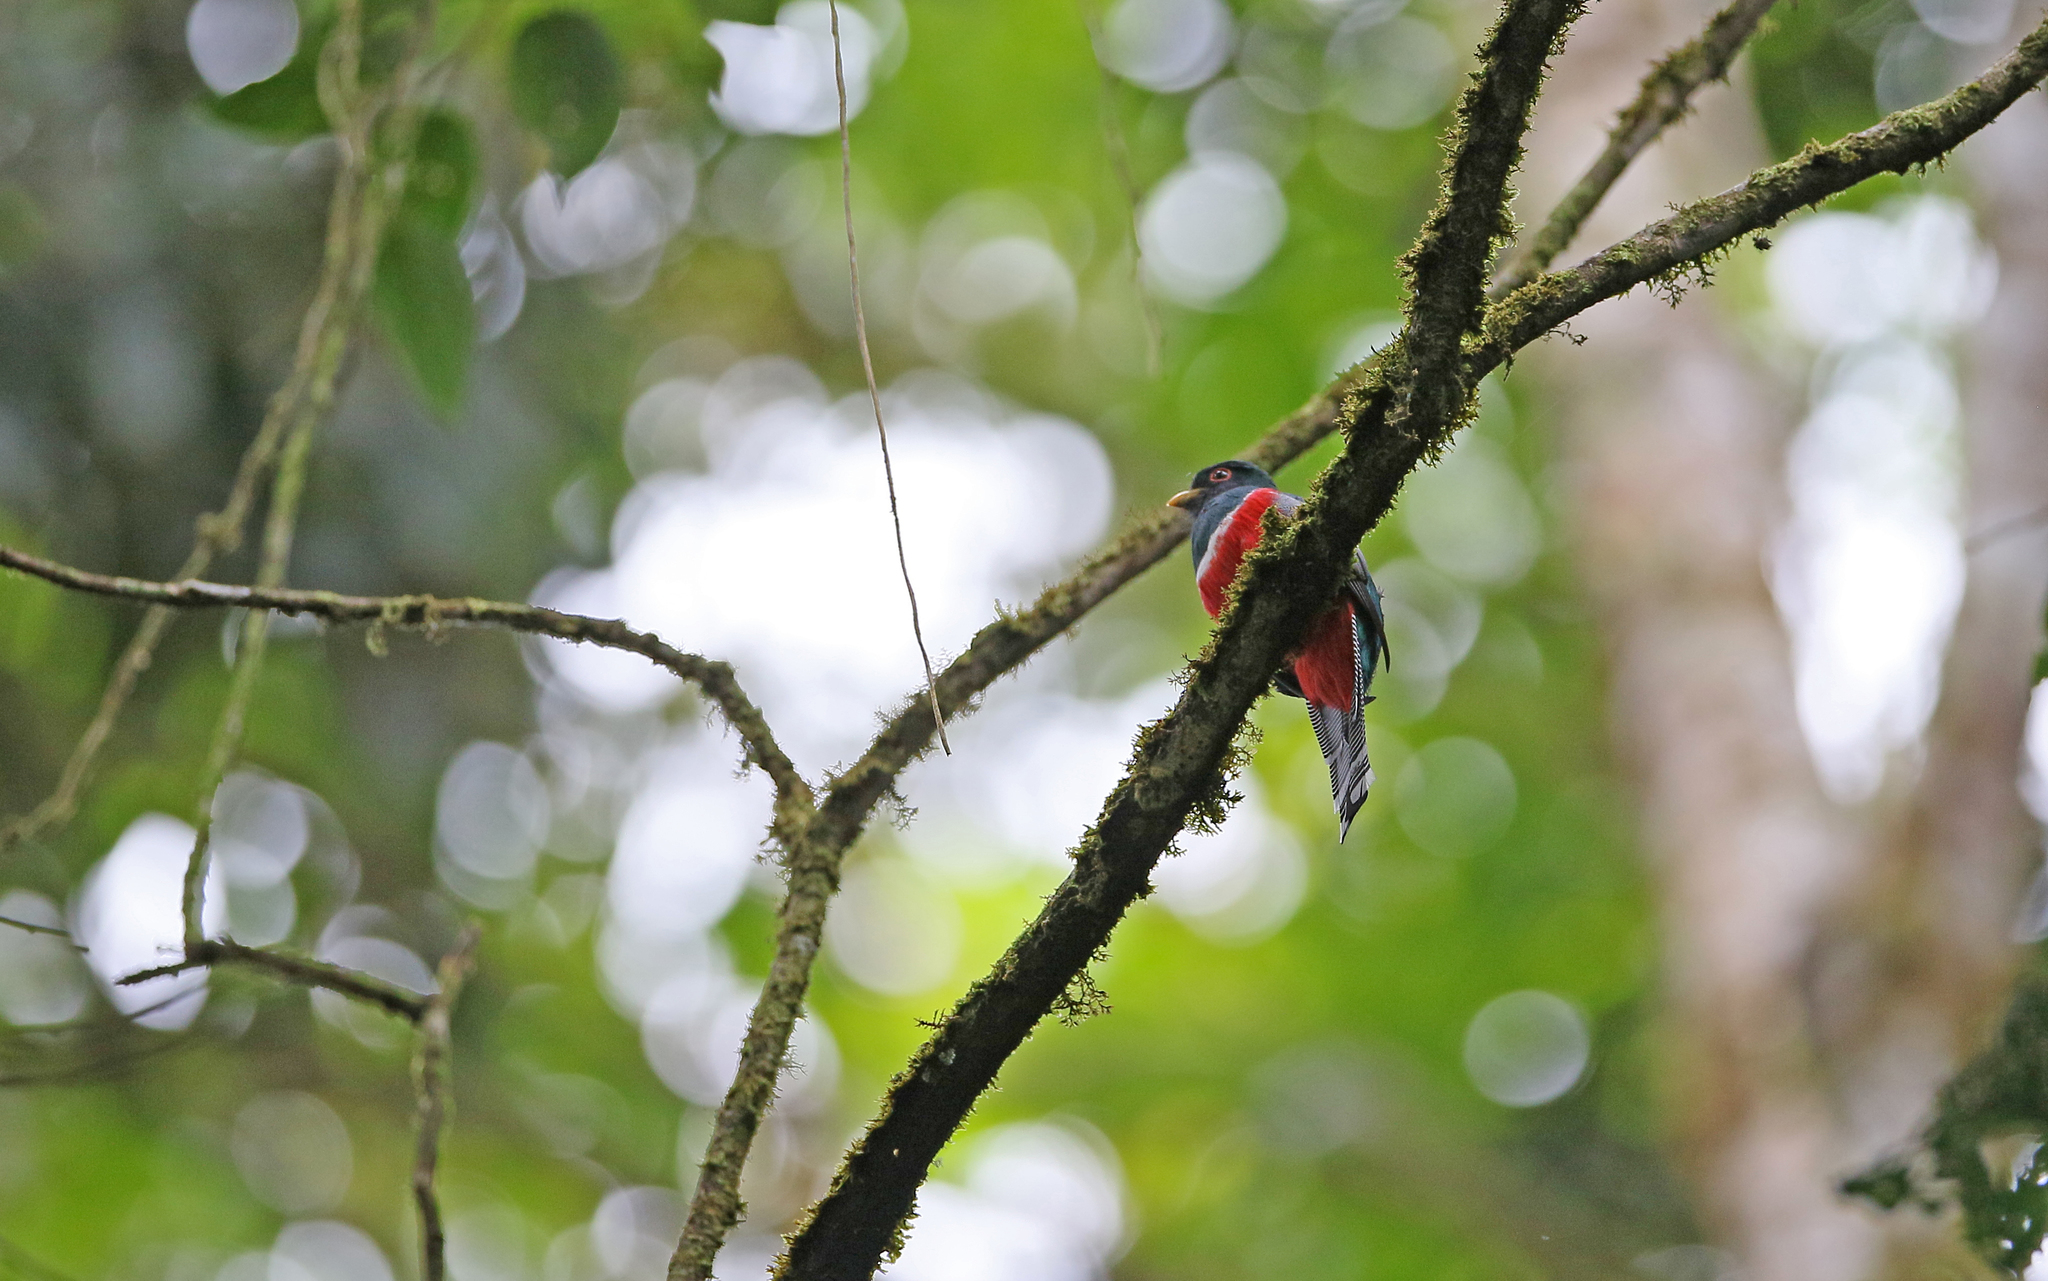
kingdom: Animalia
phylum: Chordata
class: Aves
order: Trogoniformes
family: Trogonidae
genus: Trogon
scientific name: Trogon collaris
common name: Collared trogon
